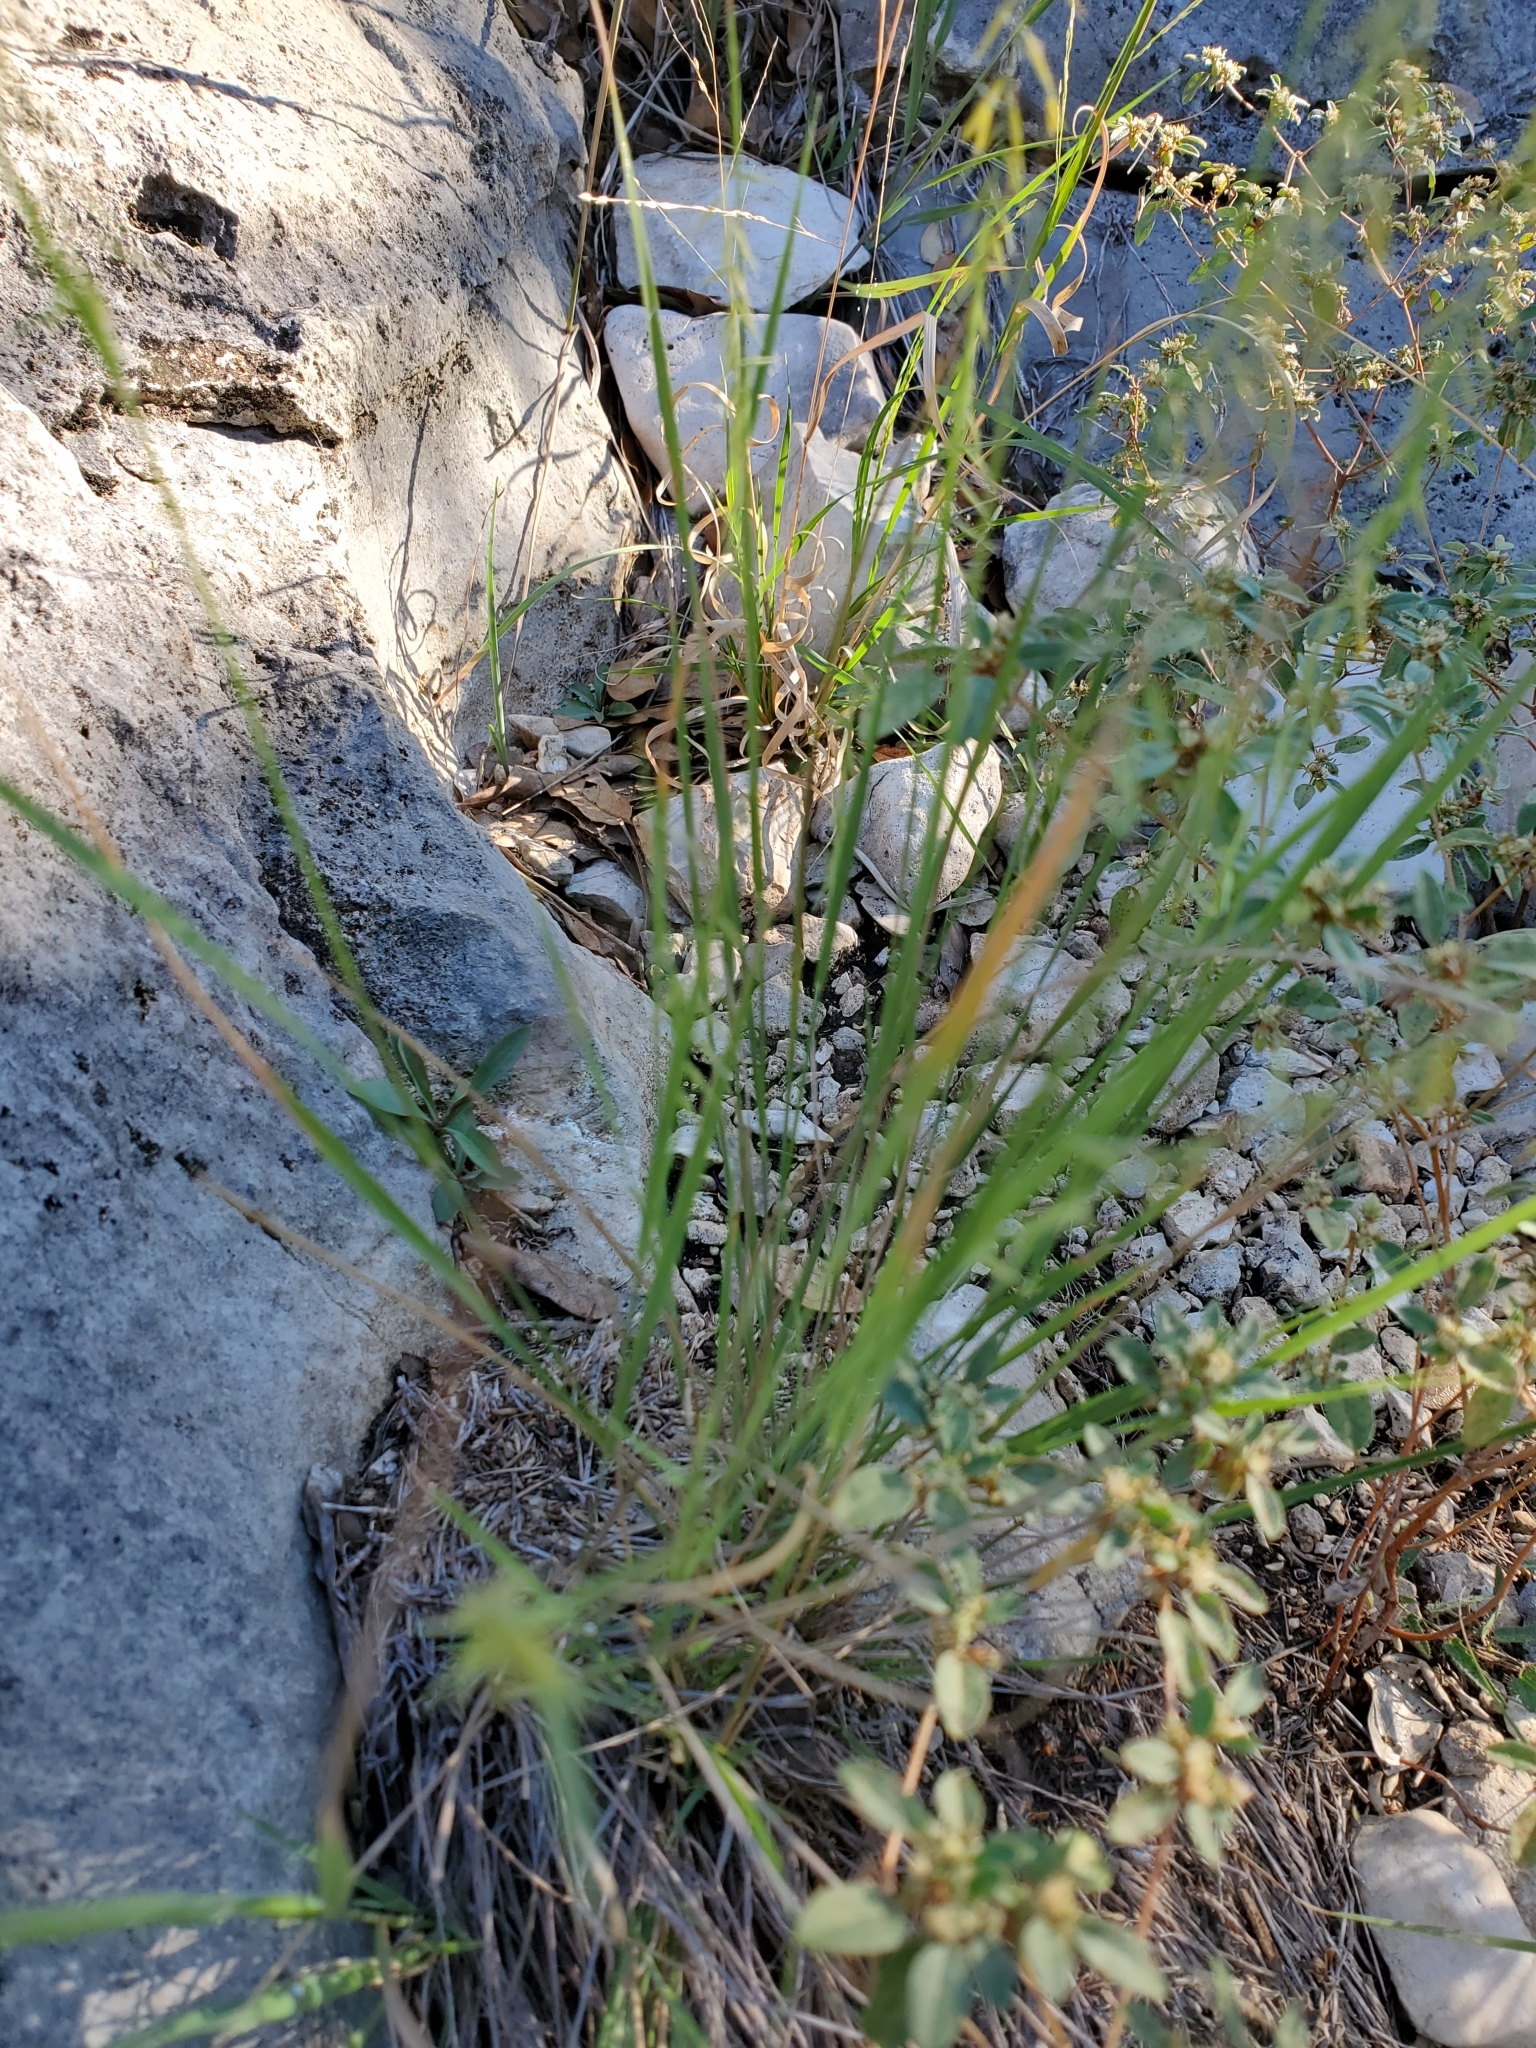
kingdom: Plantae
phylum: Tracheophyta
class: Liliopsida
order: Poales
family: Poaceae
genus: Bouteloua
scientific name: Bouteloua curtipendula
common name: Side-oats grama
